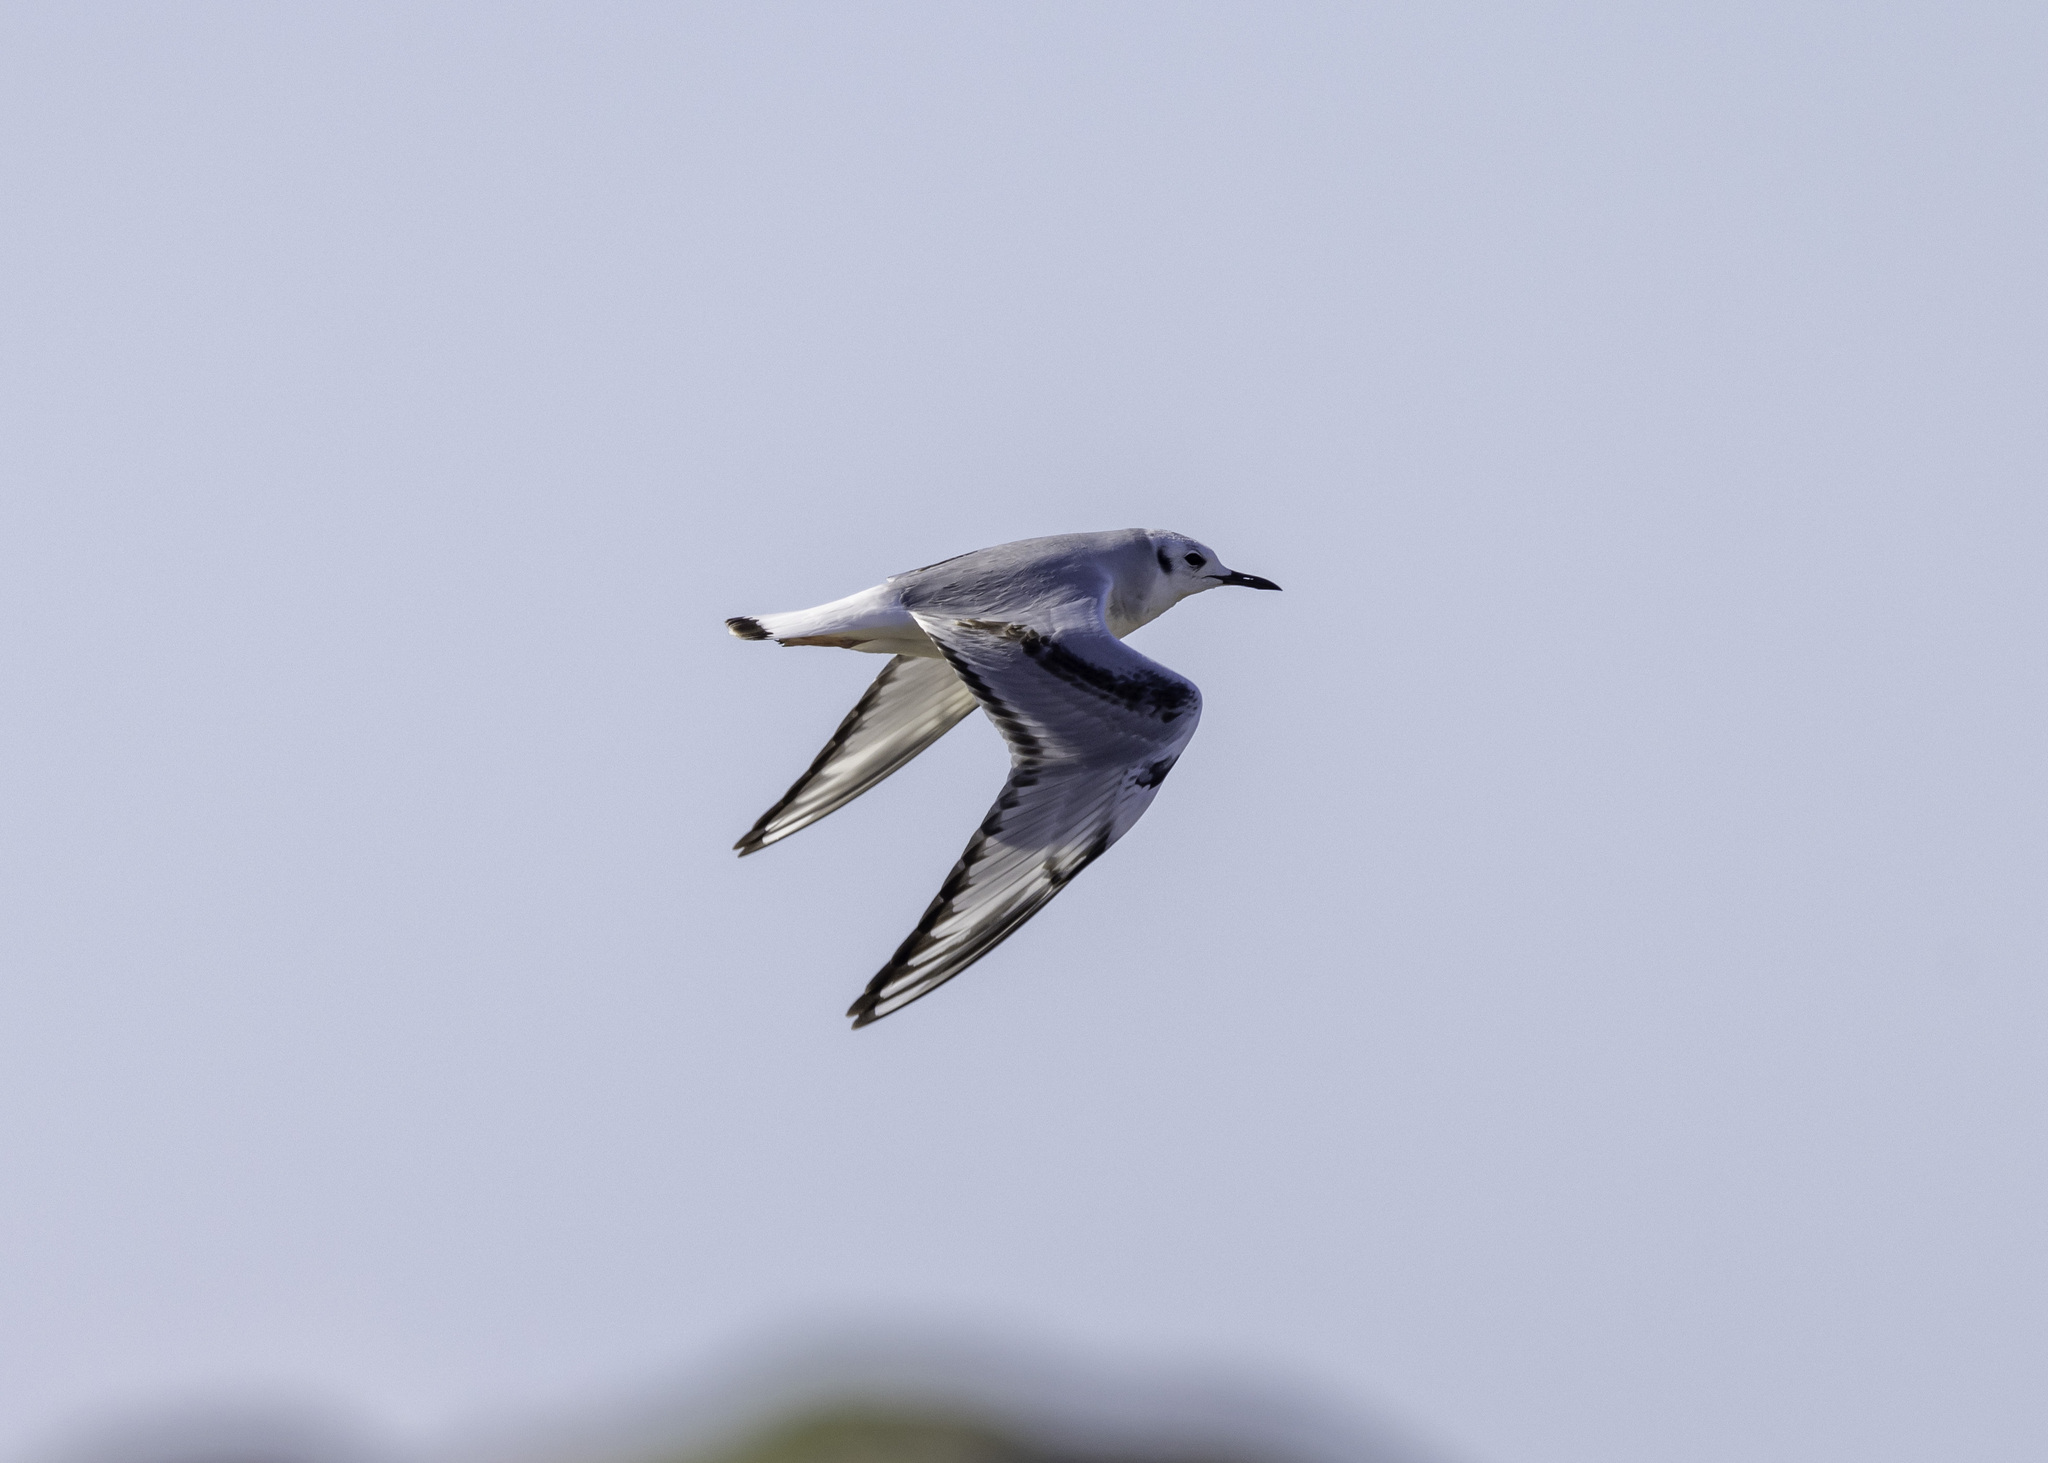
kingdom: Animalia
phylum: Chordata
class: Aves
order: Charadriiformes
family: Laridae
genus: Chroicocephalus
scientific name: Chroicocephalus philadelphia
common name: Bonaparte's gull
